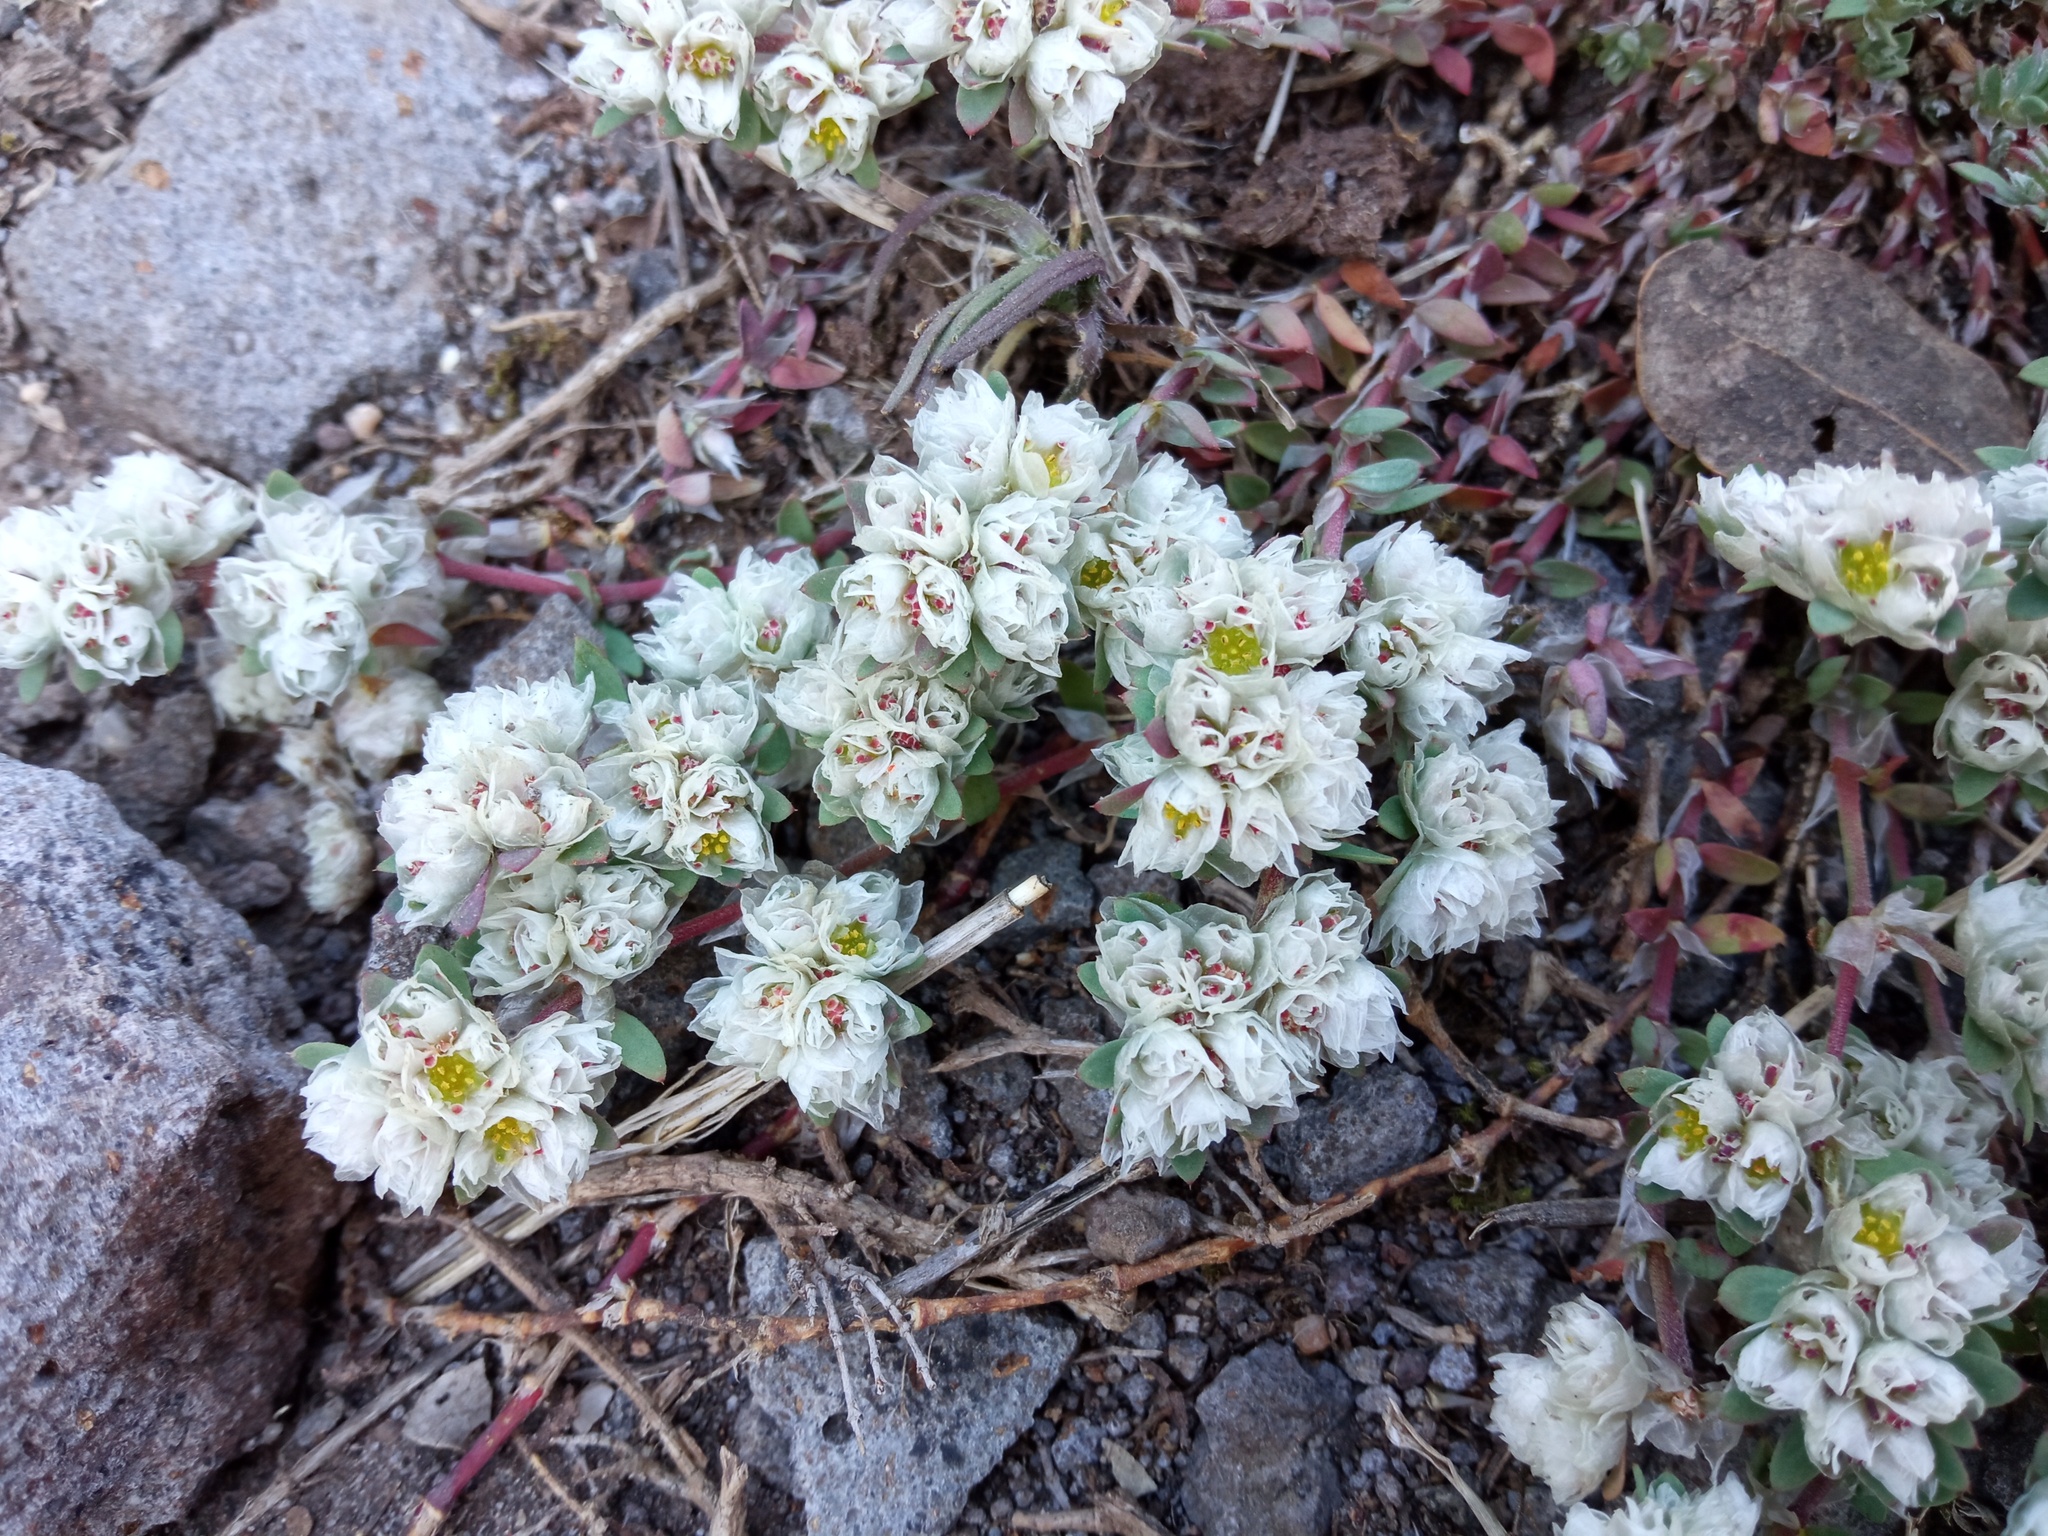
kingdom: Plantae
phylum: Tracheophyta
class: Magnoliopsida
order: Caryophyllales
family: Caryophyllaceae
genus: Paronychia
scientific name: Paronychia argentea
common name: Silver nailroot
